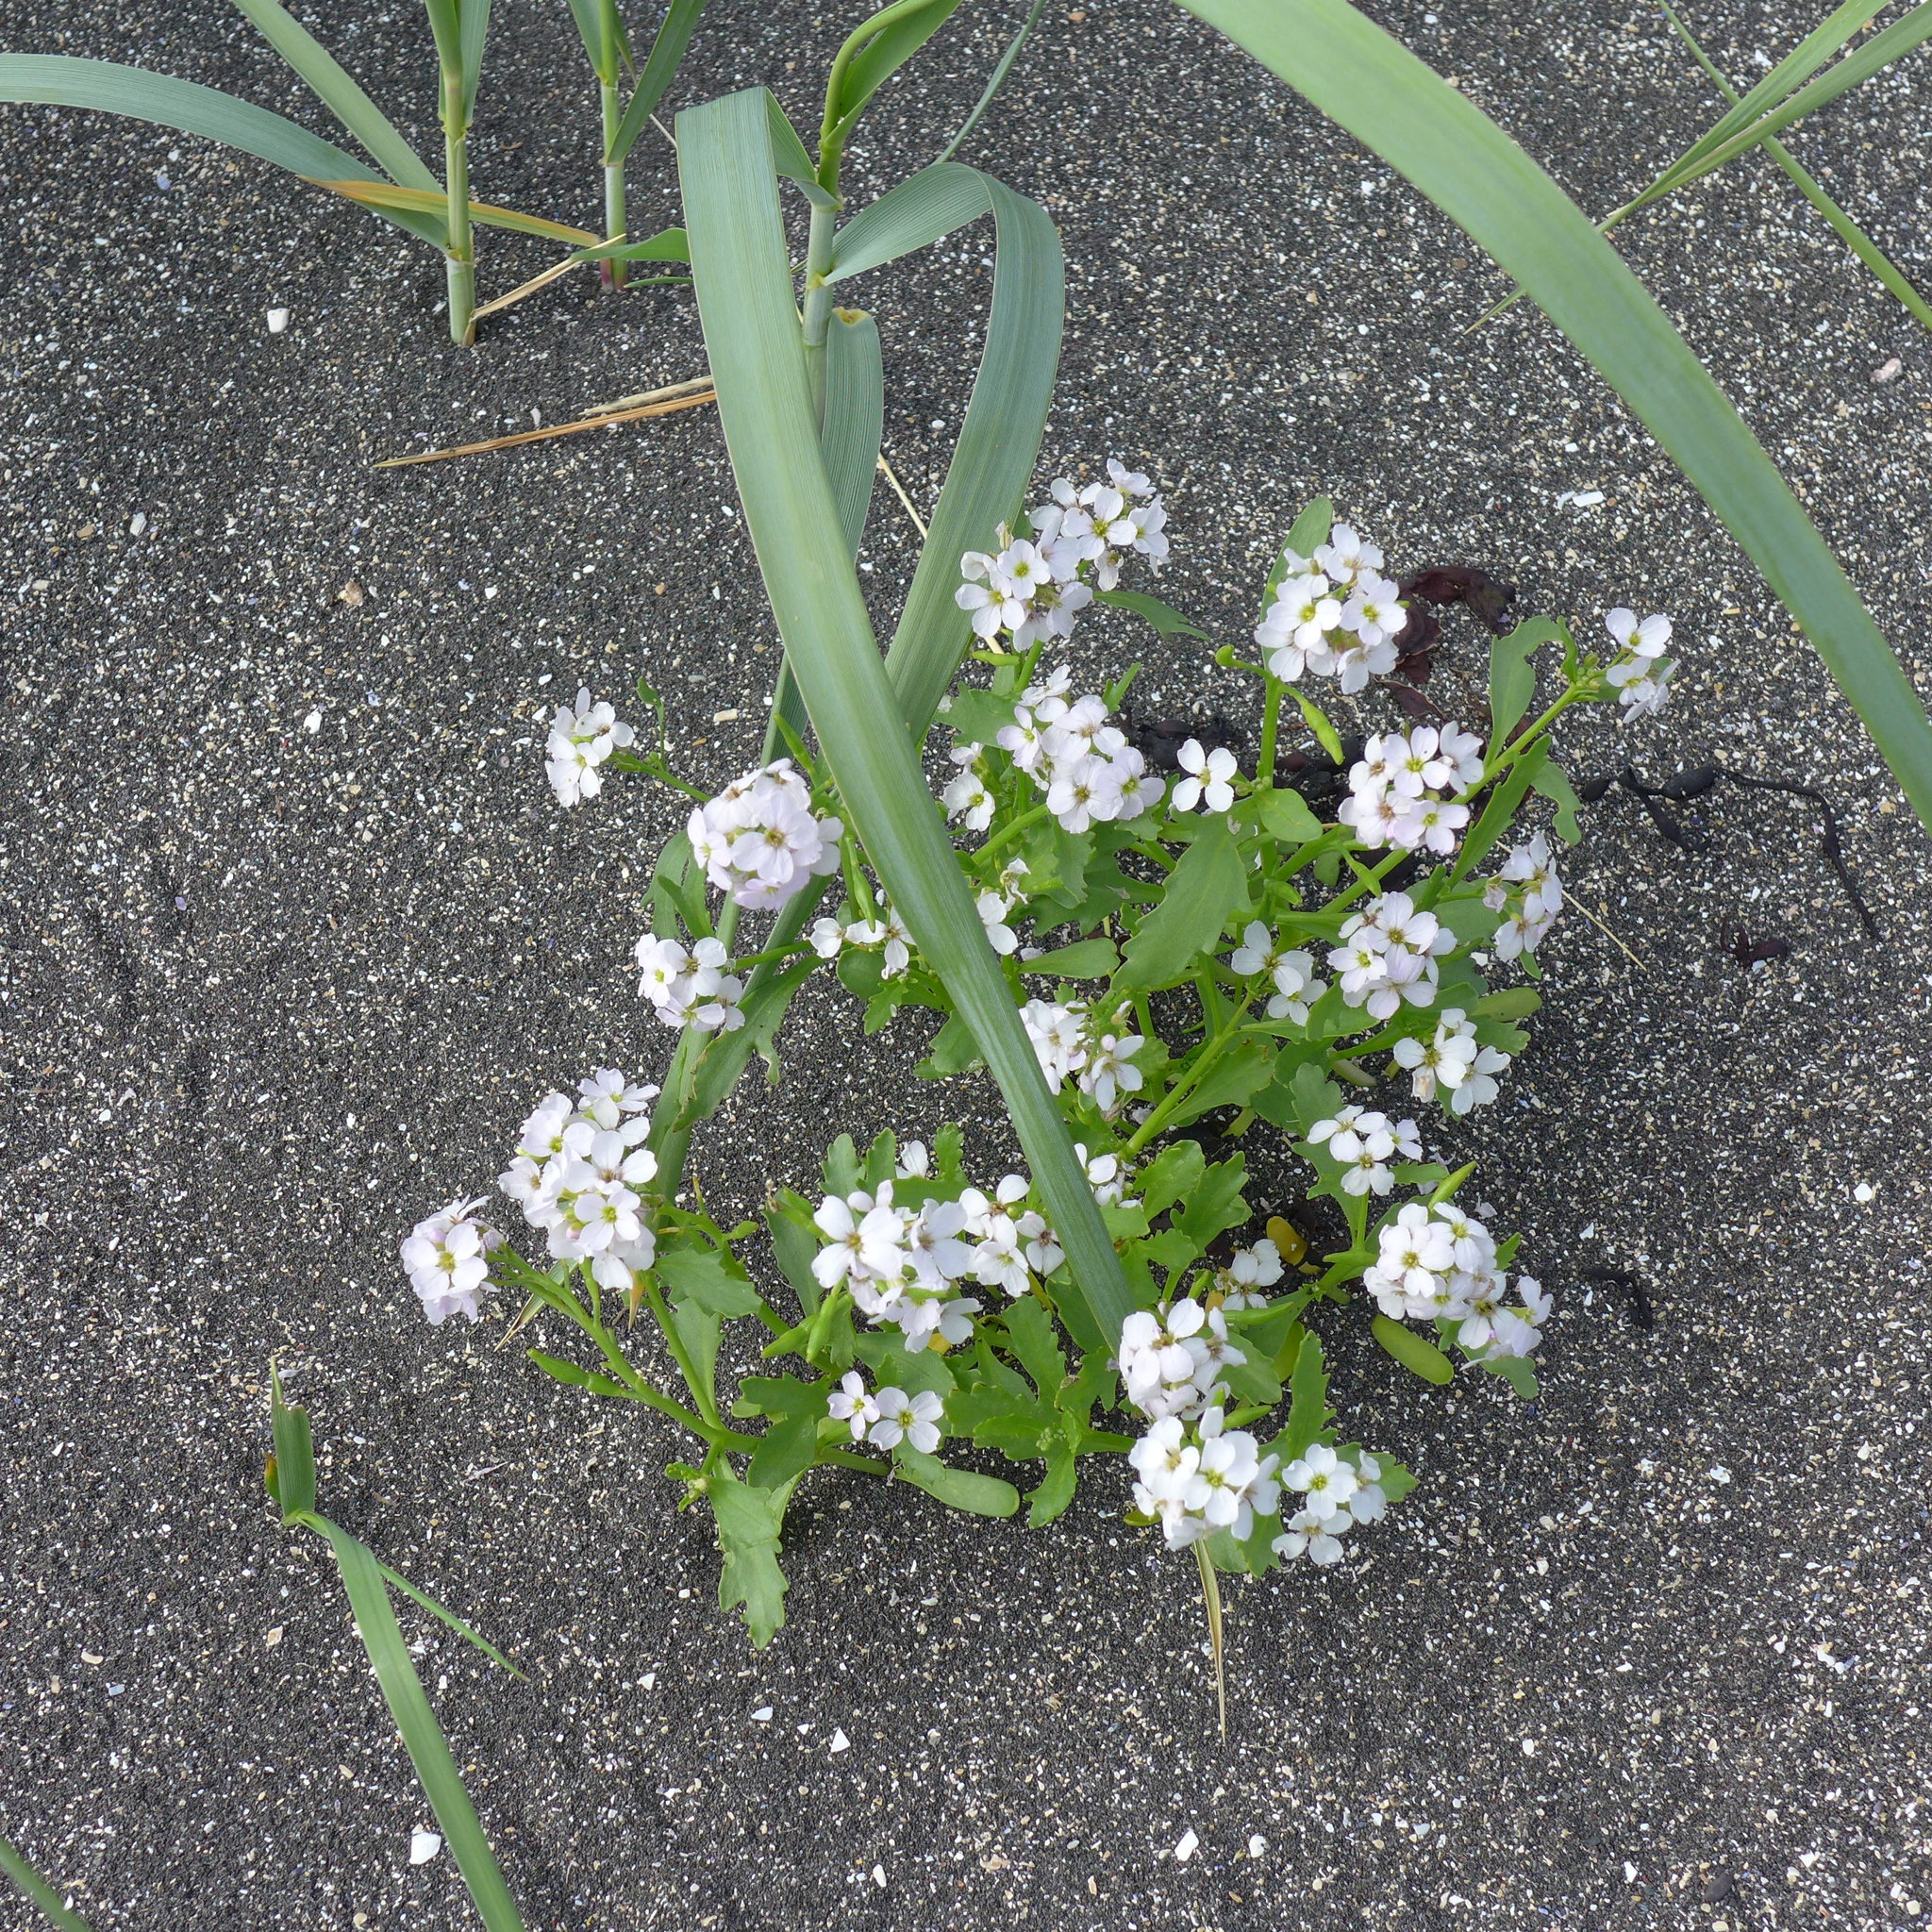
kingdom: Plantae
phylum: Tracheophyta
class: Magnoliopsida
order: Brassicales
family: Brassicaceae
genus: Cakile
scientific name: Cakile arctica
